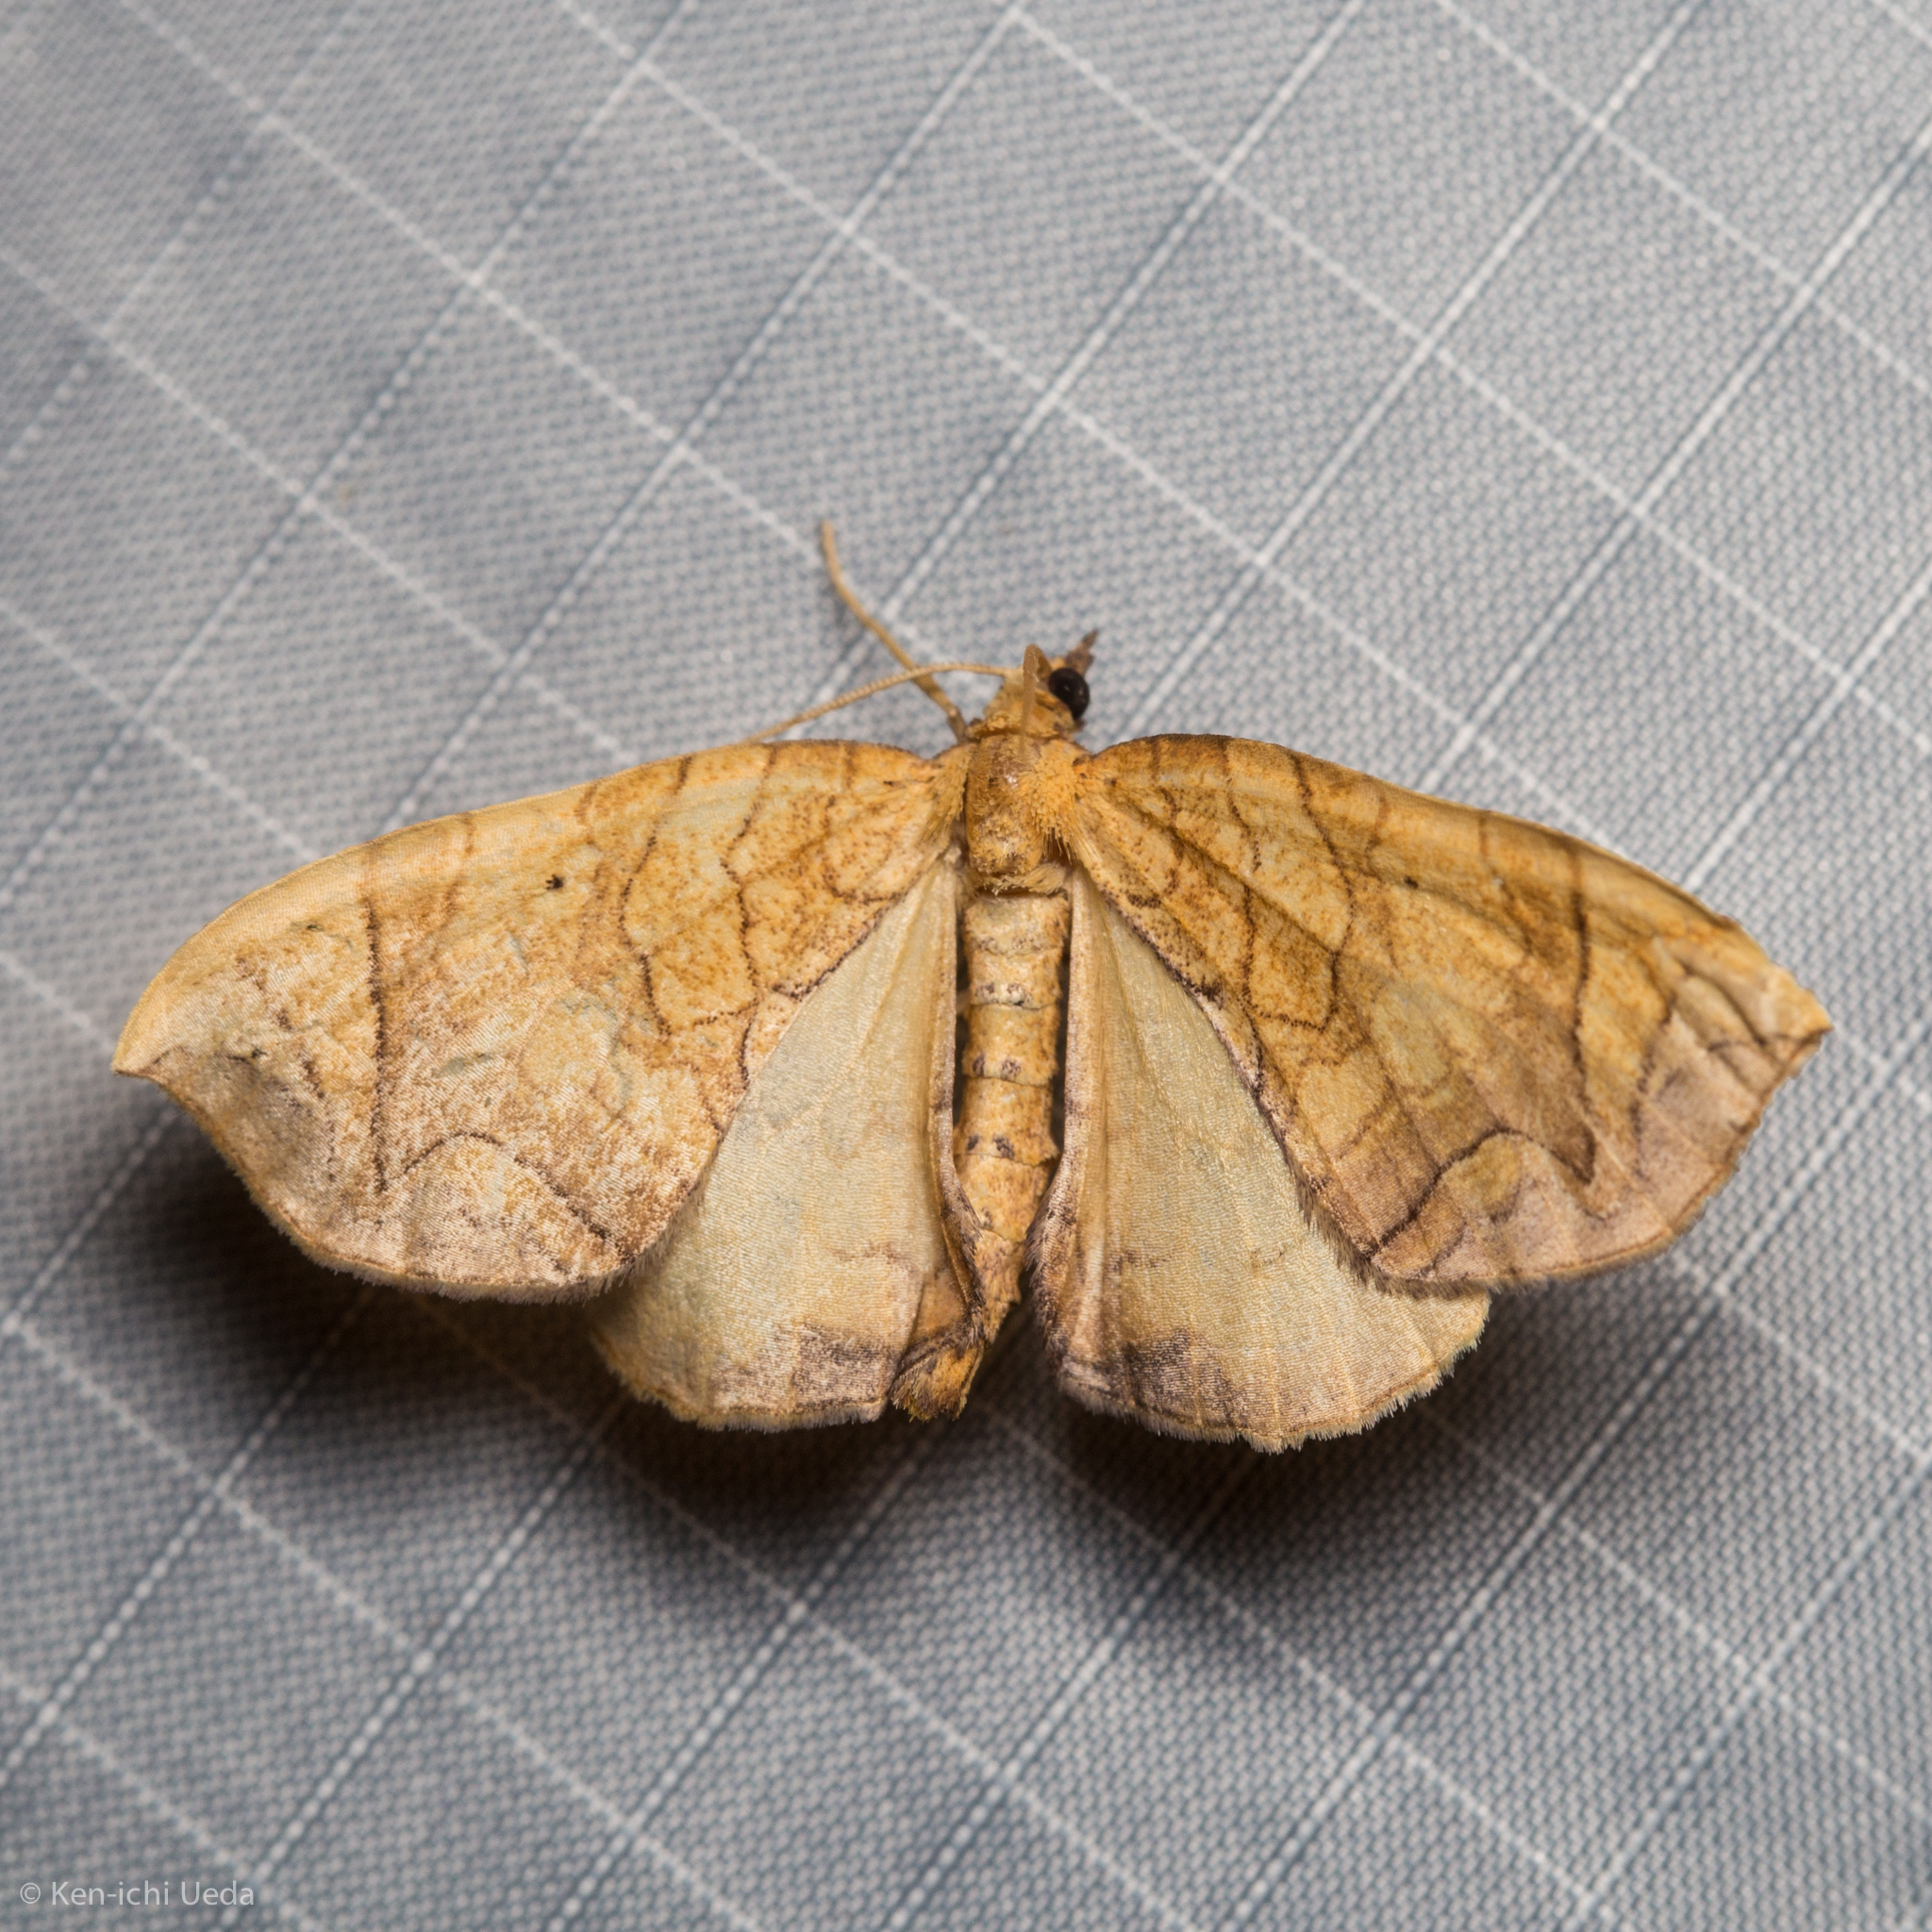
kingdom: Animalia
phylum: Arthropoda
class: Insecta
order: Lepidoptera
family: Geometridae
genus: Eulithis
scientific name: Eulithis
